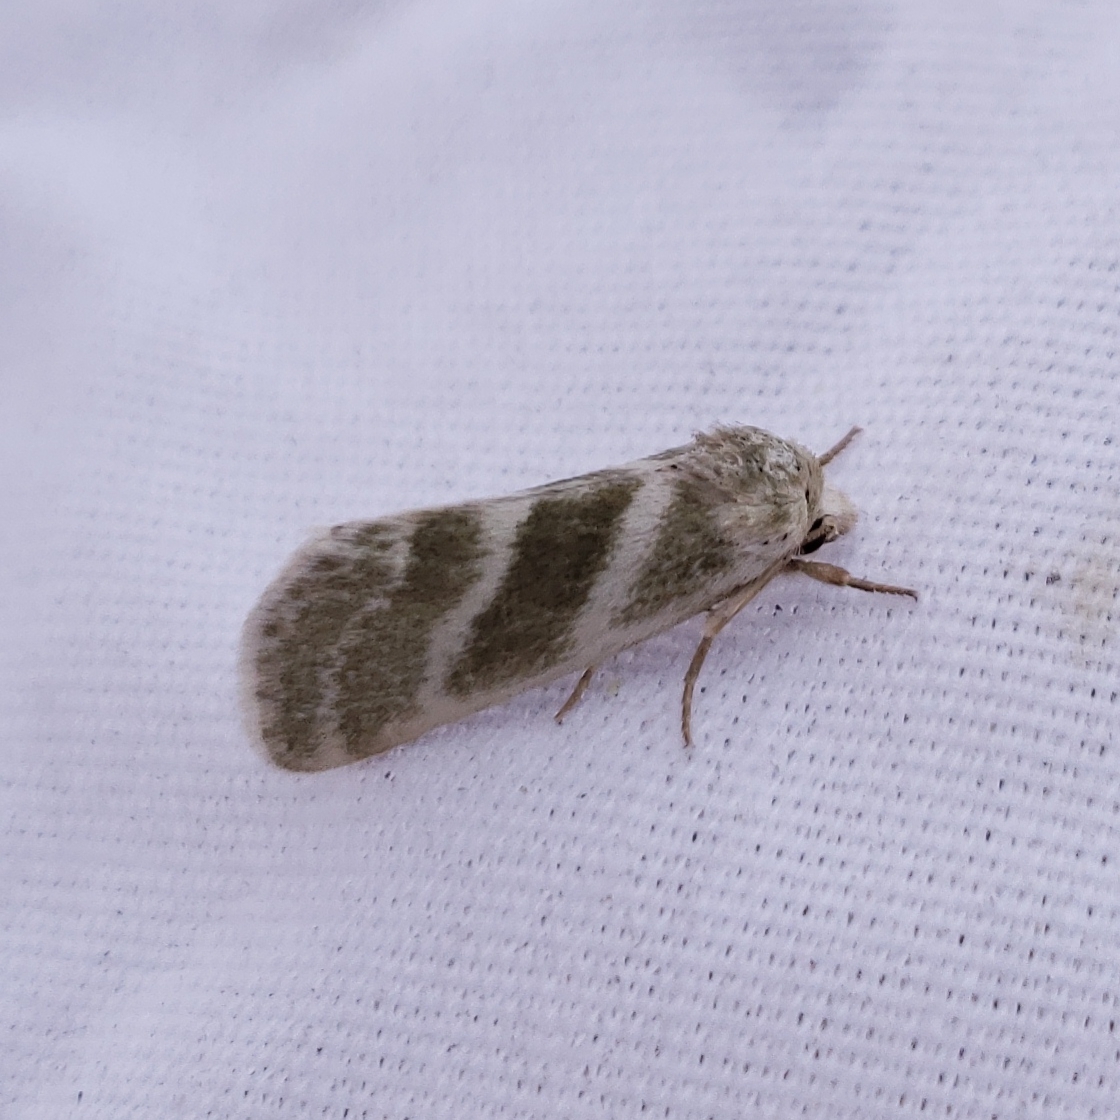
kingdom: Animalia
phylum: Arthropoda
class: Insecta
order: Lepidoptera
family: Noctuidae
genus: Azenia
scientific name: Azenia virida
